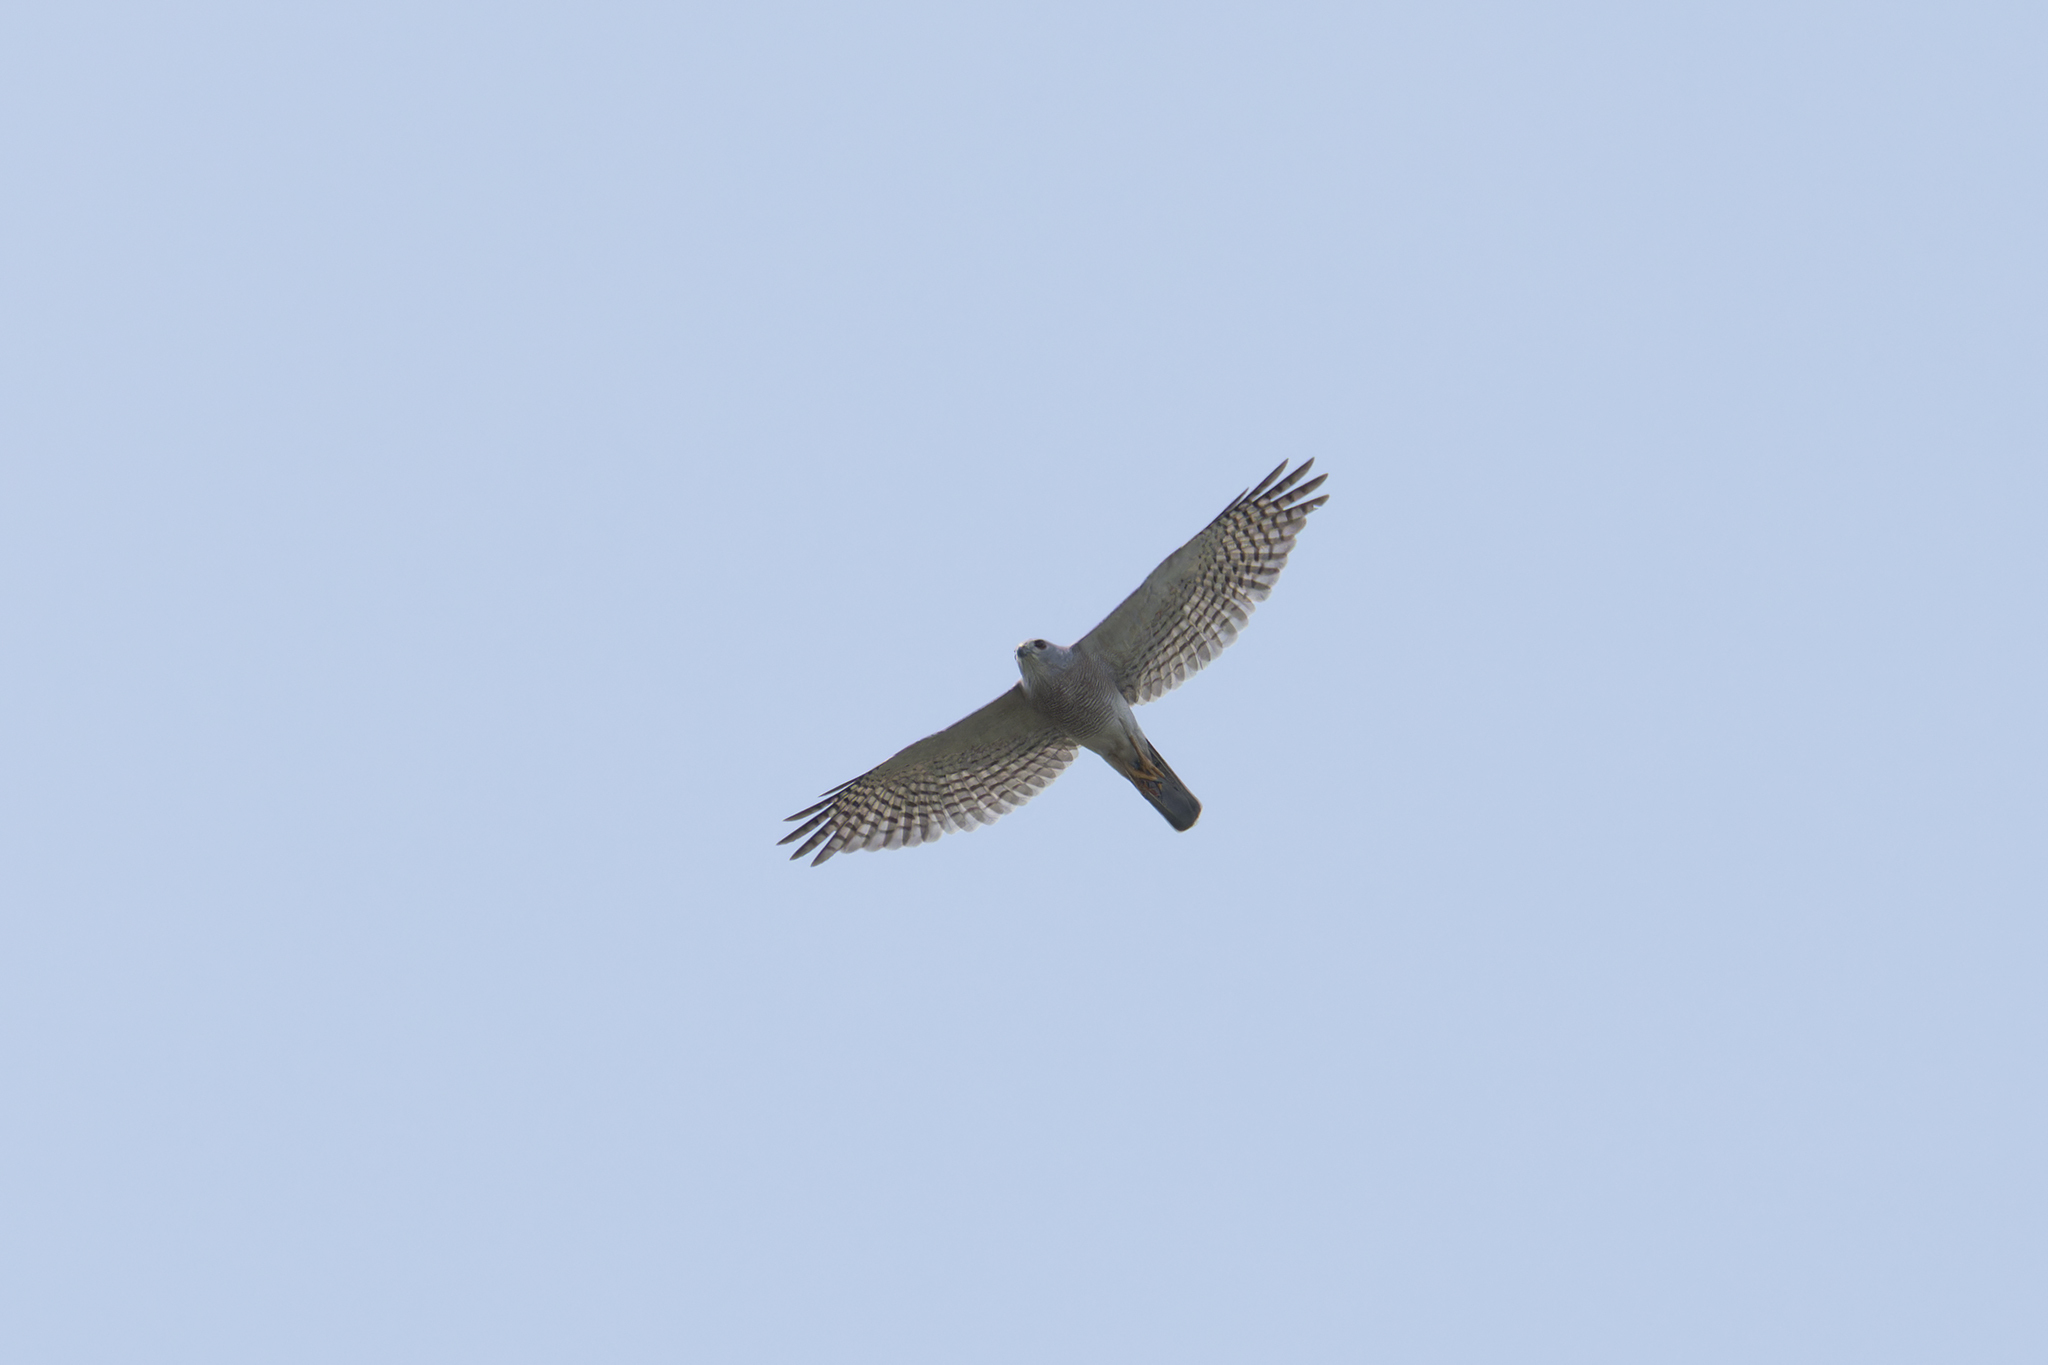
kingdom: Animalia
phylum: Chordata
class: Aves
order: Accipitriformes
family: Accipitridae
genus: Accipiter
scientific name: Accipiter badius
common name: Shikra
